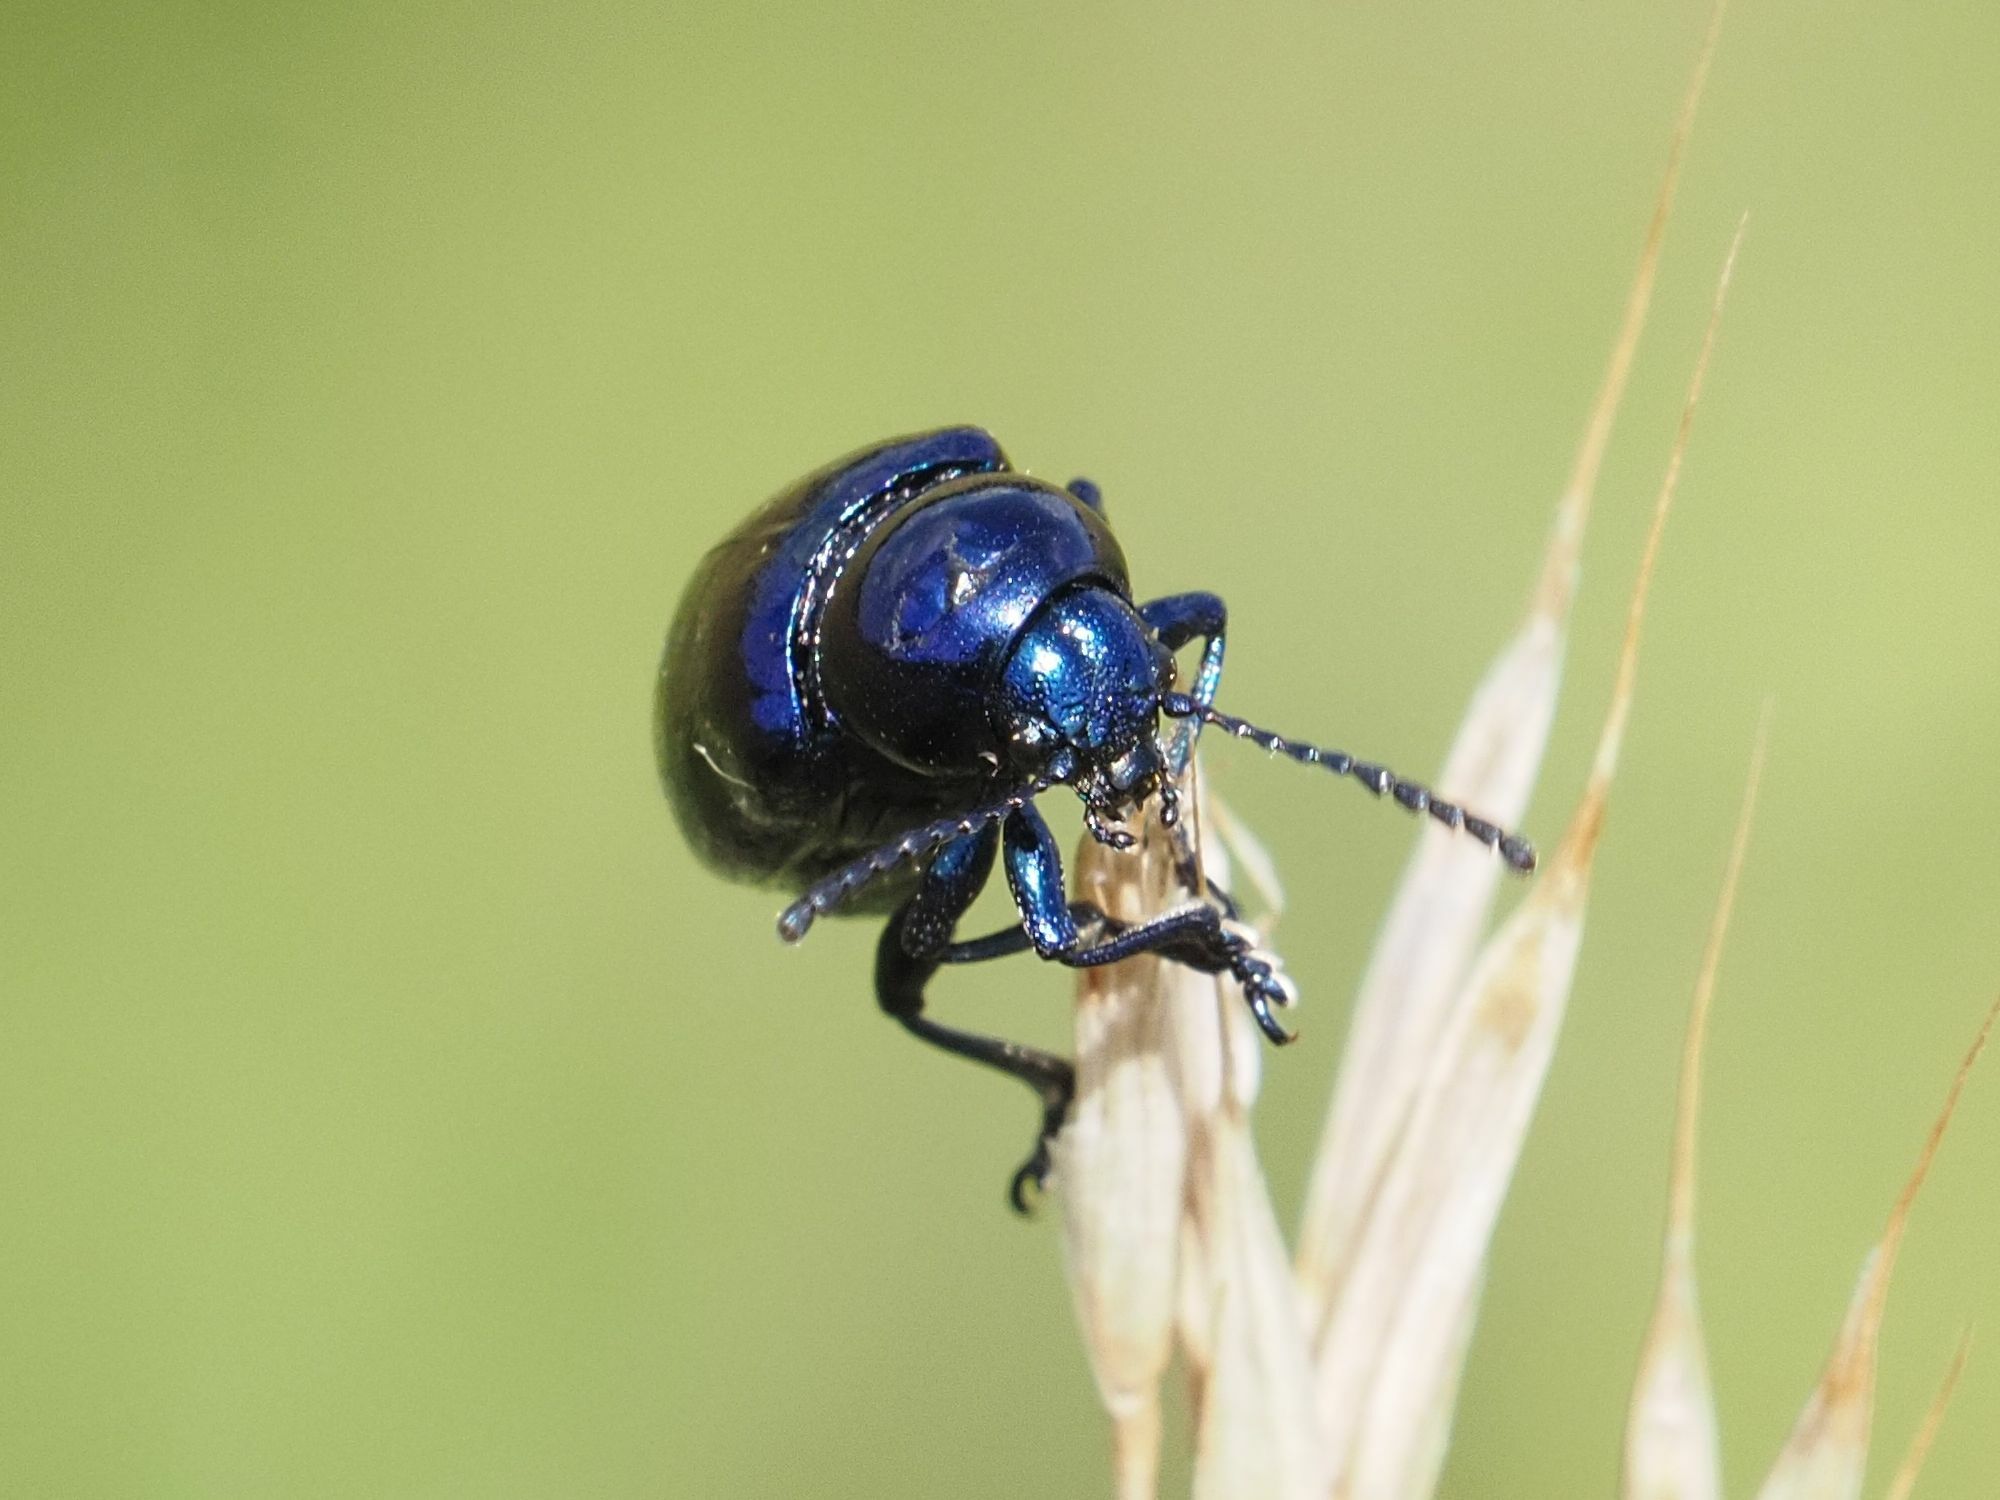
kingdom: Animalia
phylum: Arthropoda
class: Insecta
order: Coleoptera
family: Chrysomelidae
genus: Chrysochus
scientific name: Chrysochus asclepiadeus
